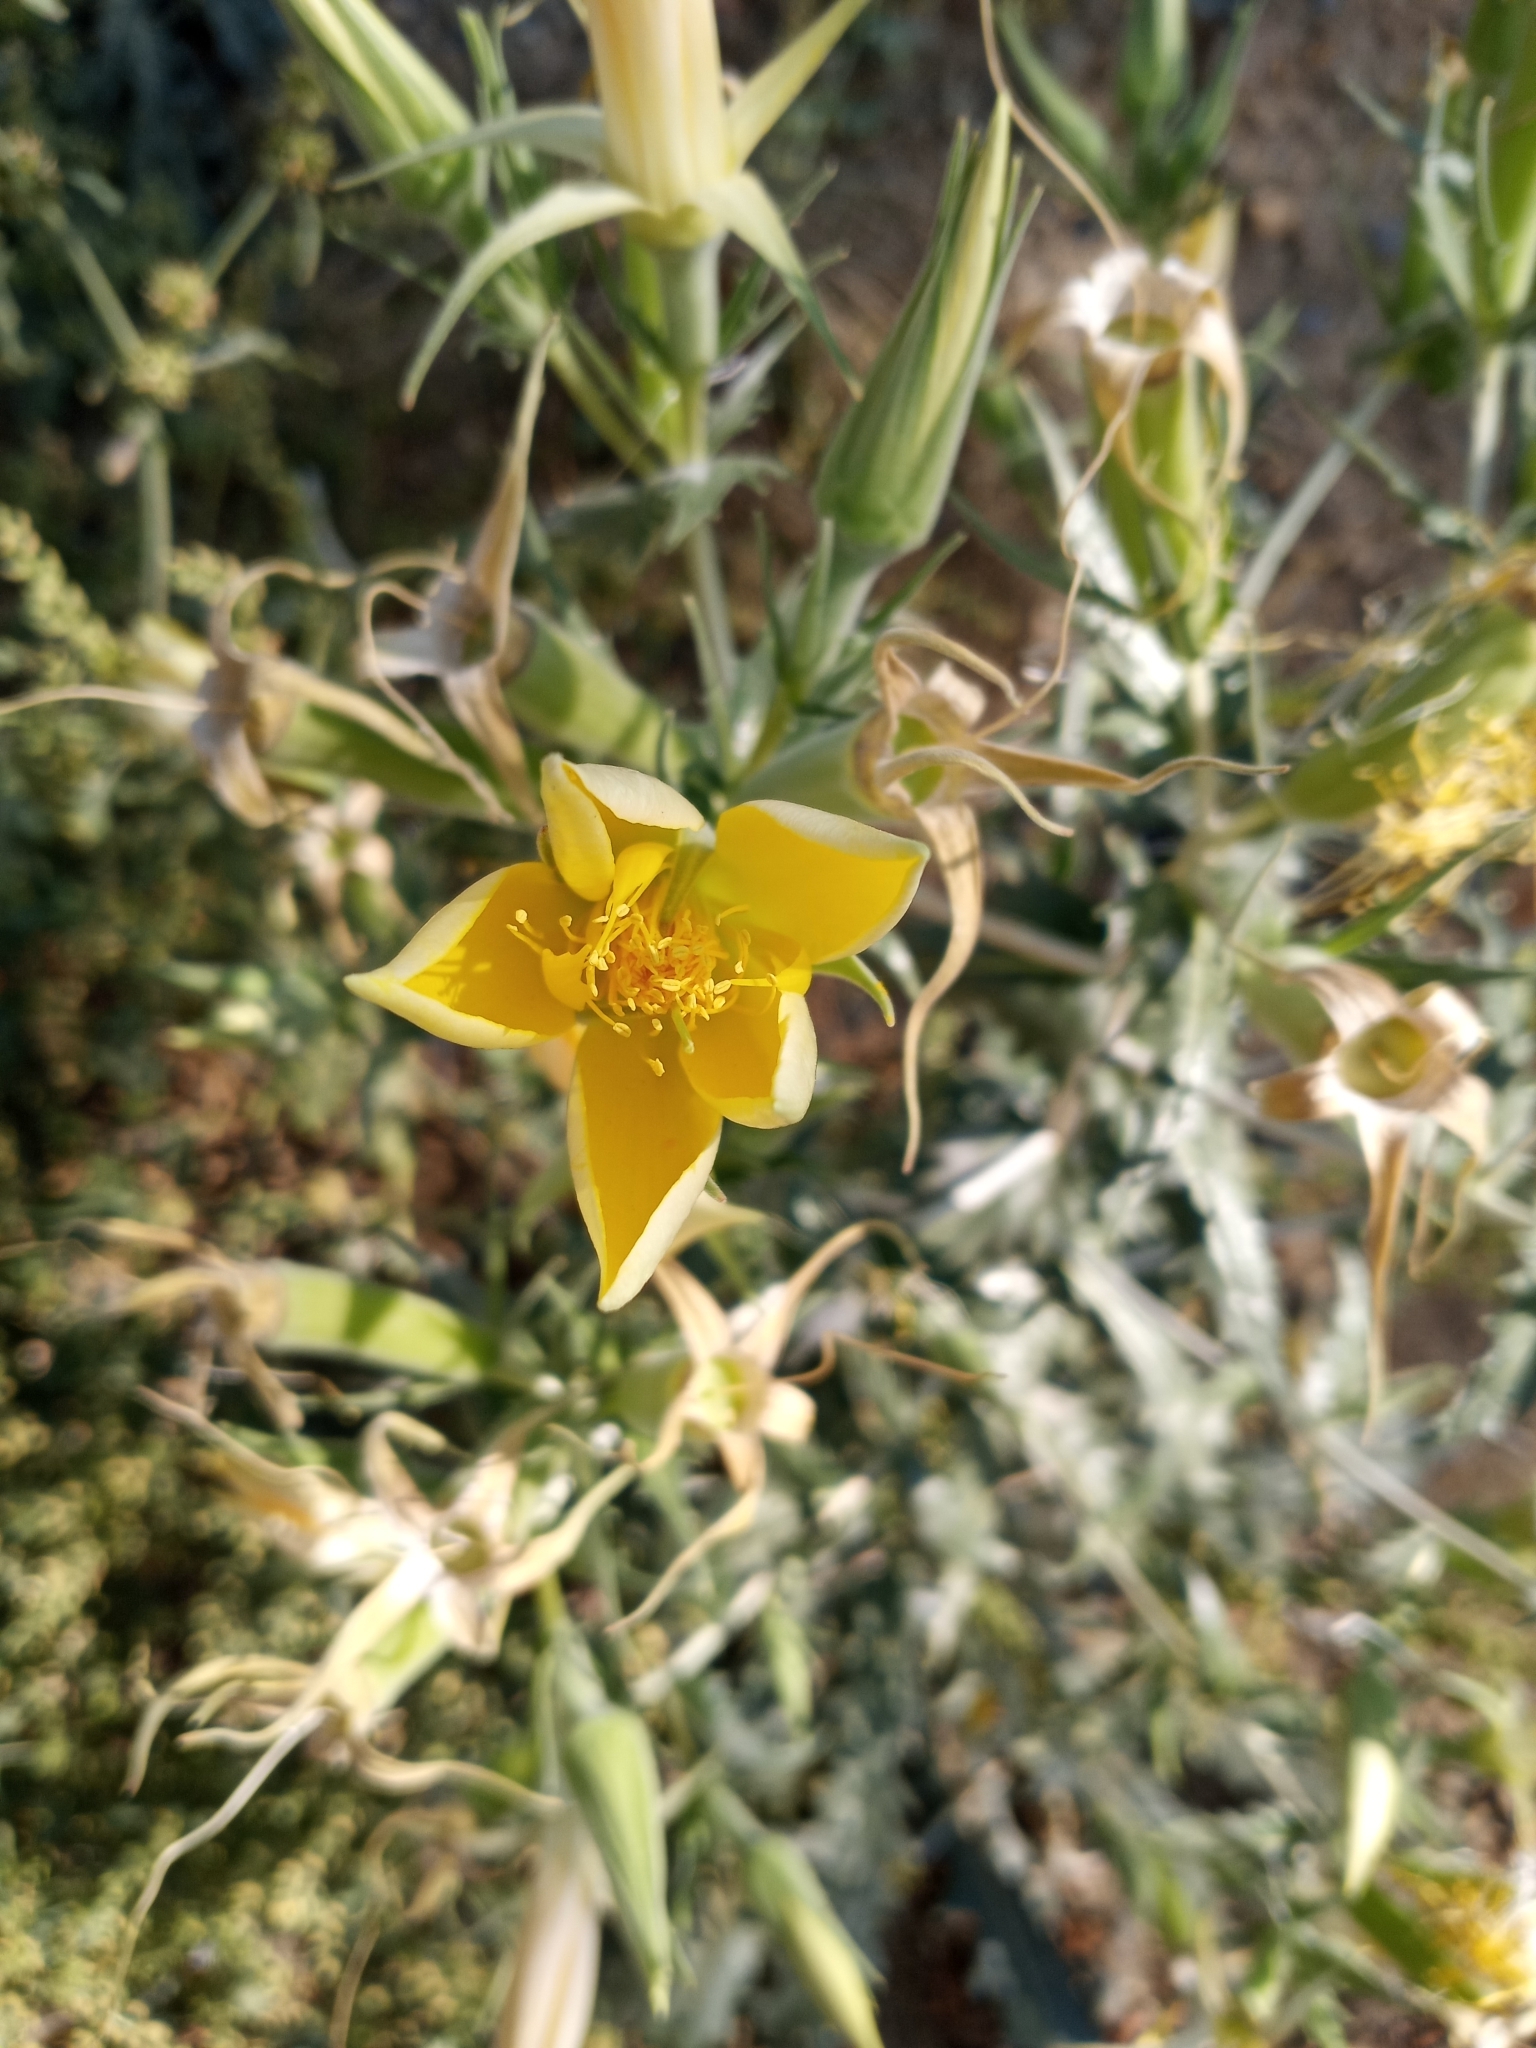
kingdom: Plantae
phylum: Tracheophyta
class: Magnoliopsida
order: Cornales
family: Loasaceae
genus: Mentzelia
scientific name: Mentzelia laevicaulis
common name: Smooth-stem blazingstar
